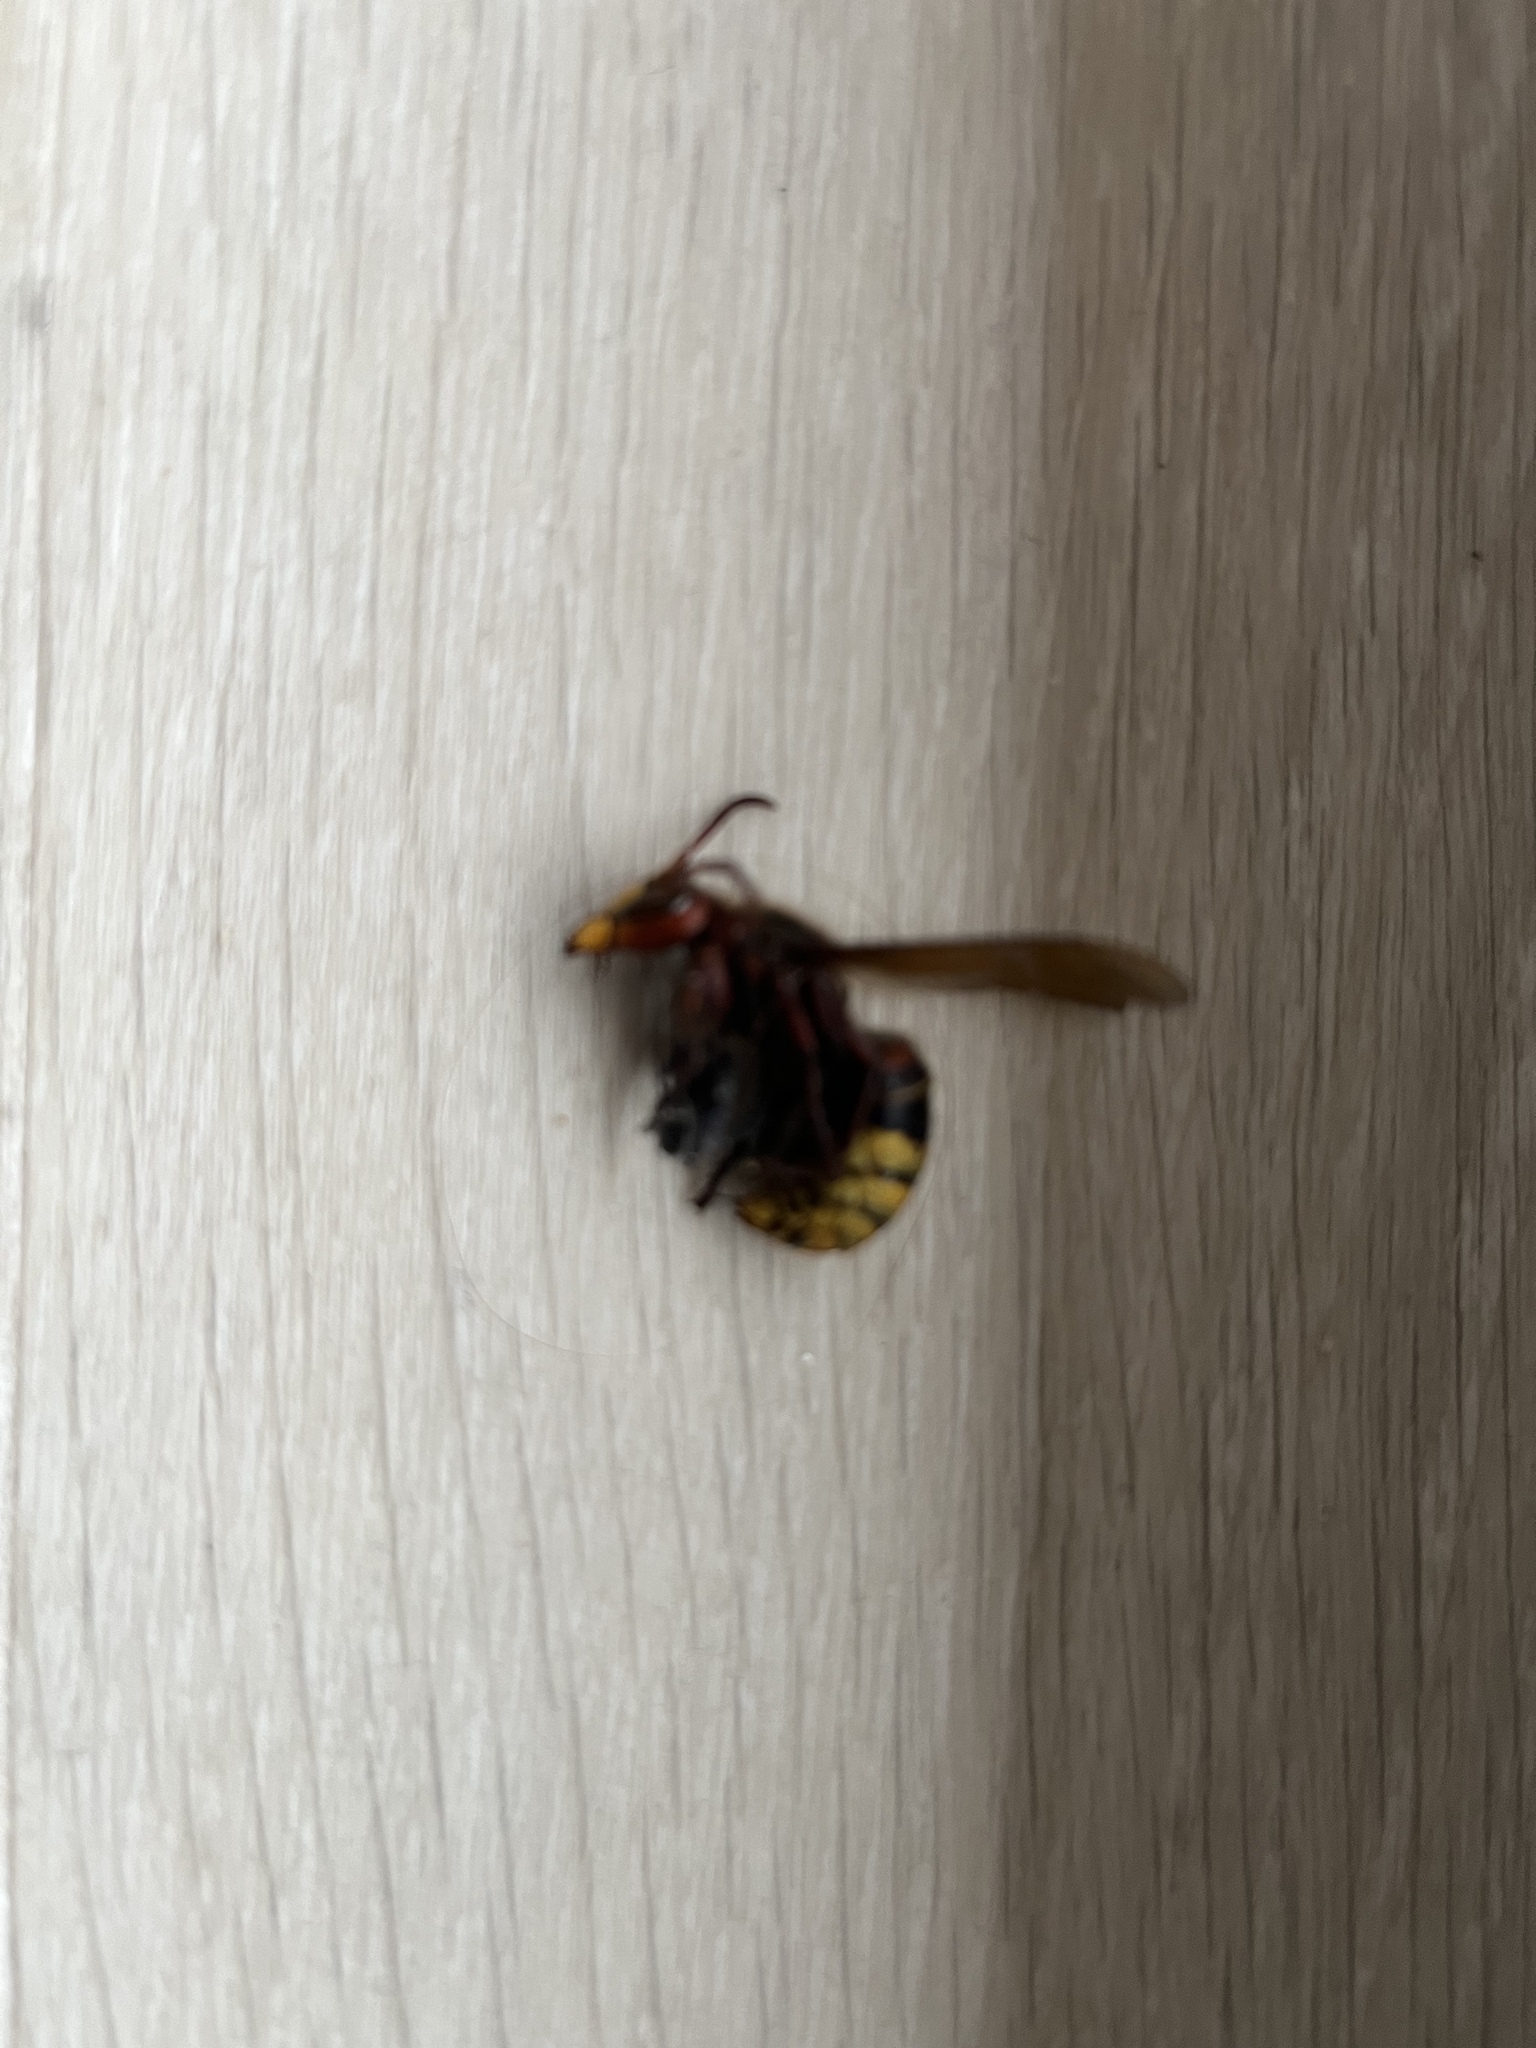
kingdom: Animalia
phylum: Arthropoda
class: Insecta
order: Hymenoptera
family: Vespidae
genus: Vespa
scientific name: Vespa crabro
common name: Hornet
